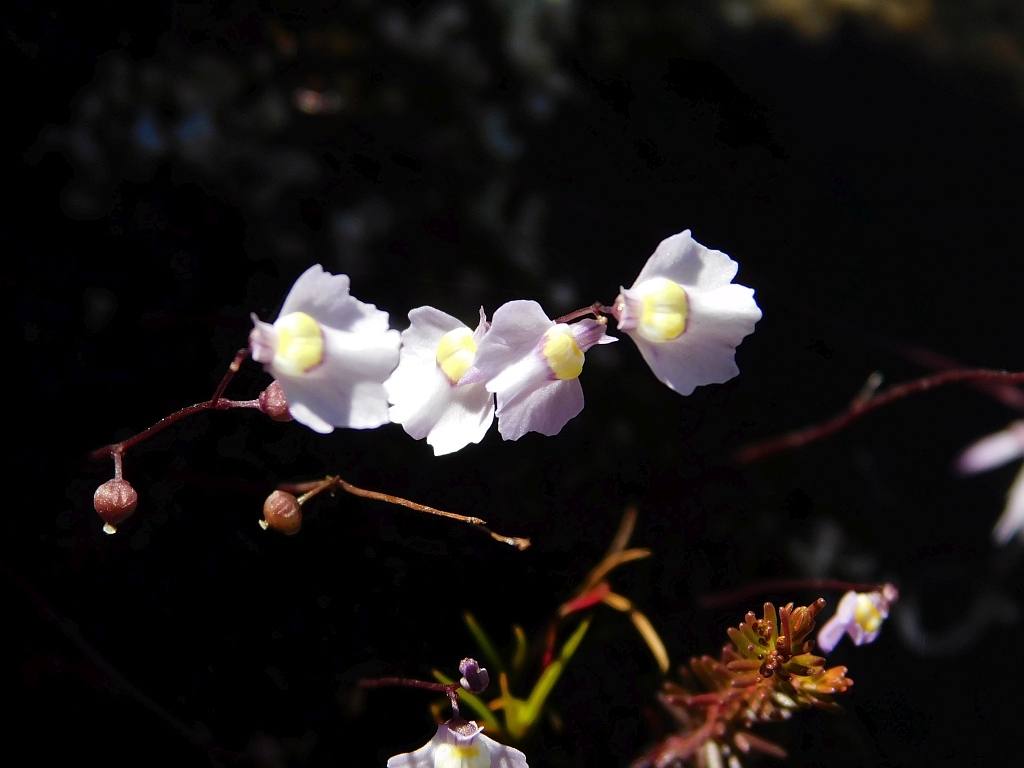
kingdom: Plantae
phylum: Tracheophyta
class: Magnoliopsida
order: Lamiales
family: Lentibulariaceae
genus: Utricularia
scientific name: Utricularia bisquamata
